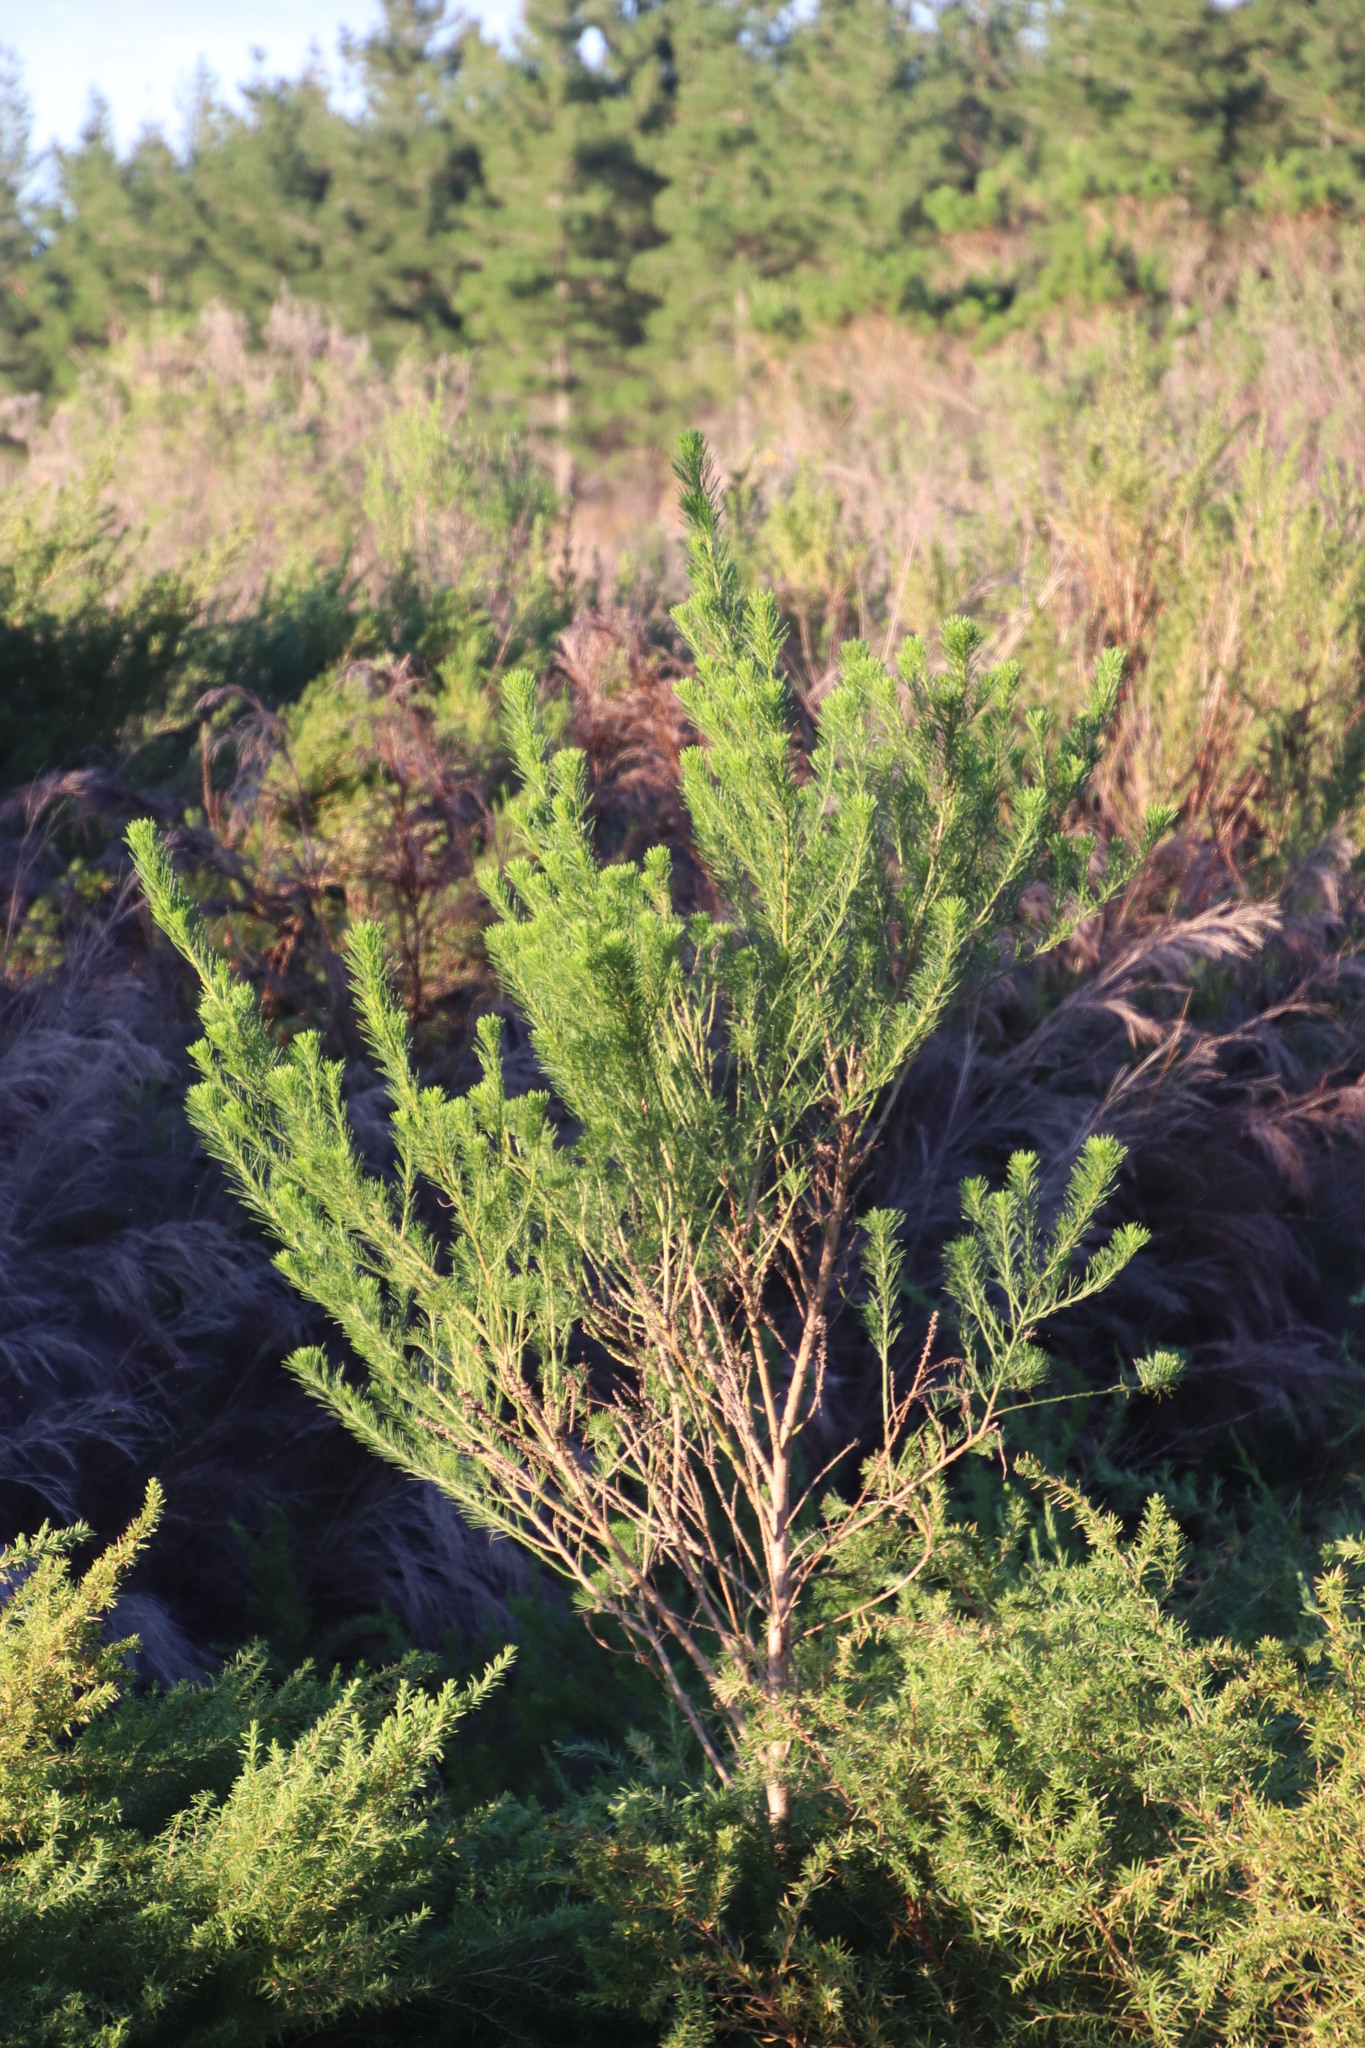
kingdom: Plantae
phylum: Tracheophyta
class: Magnoliopsida
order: Fabales
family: Fabaceae
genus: Psoralea
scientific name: Psoralea pinnata
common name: African scurfpea
